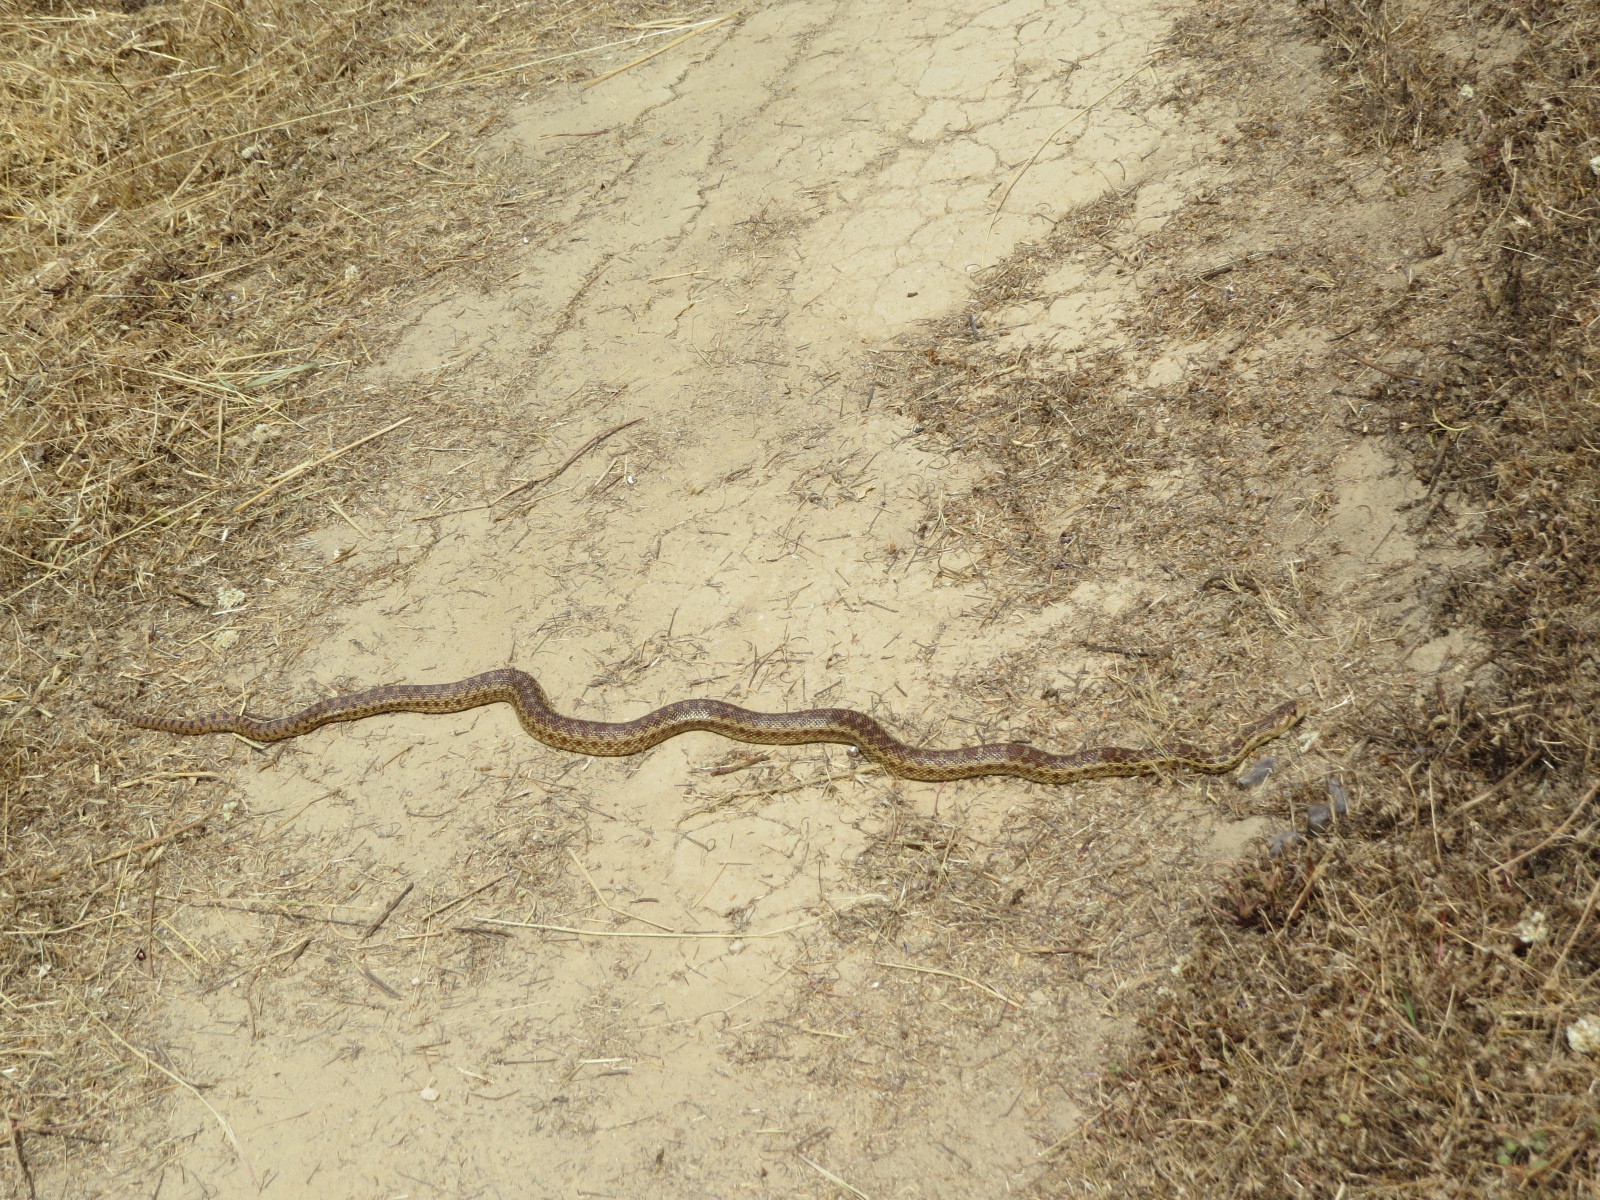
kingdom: Animalia
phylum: Chordata
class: Squamata
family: Colubridae
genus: Pituophis
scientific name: Pituophis catenifer
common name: Gopher snake
